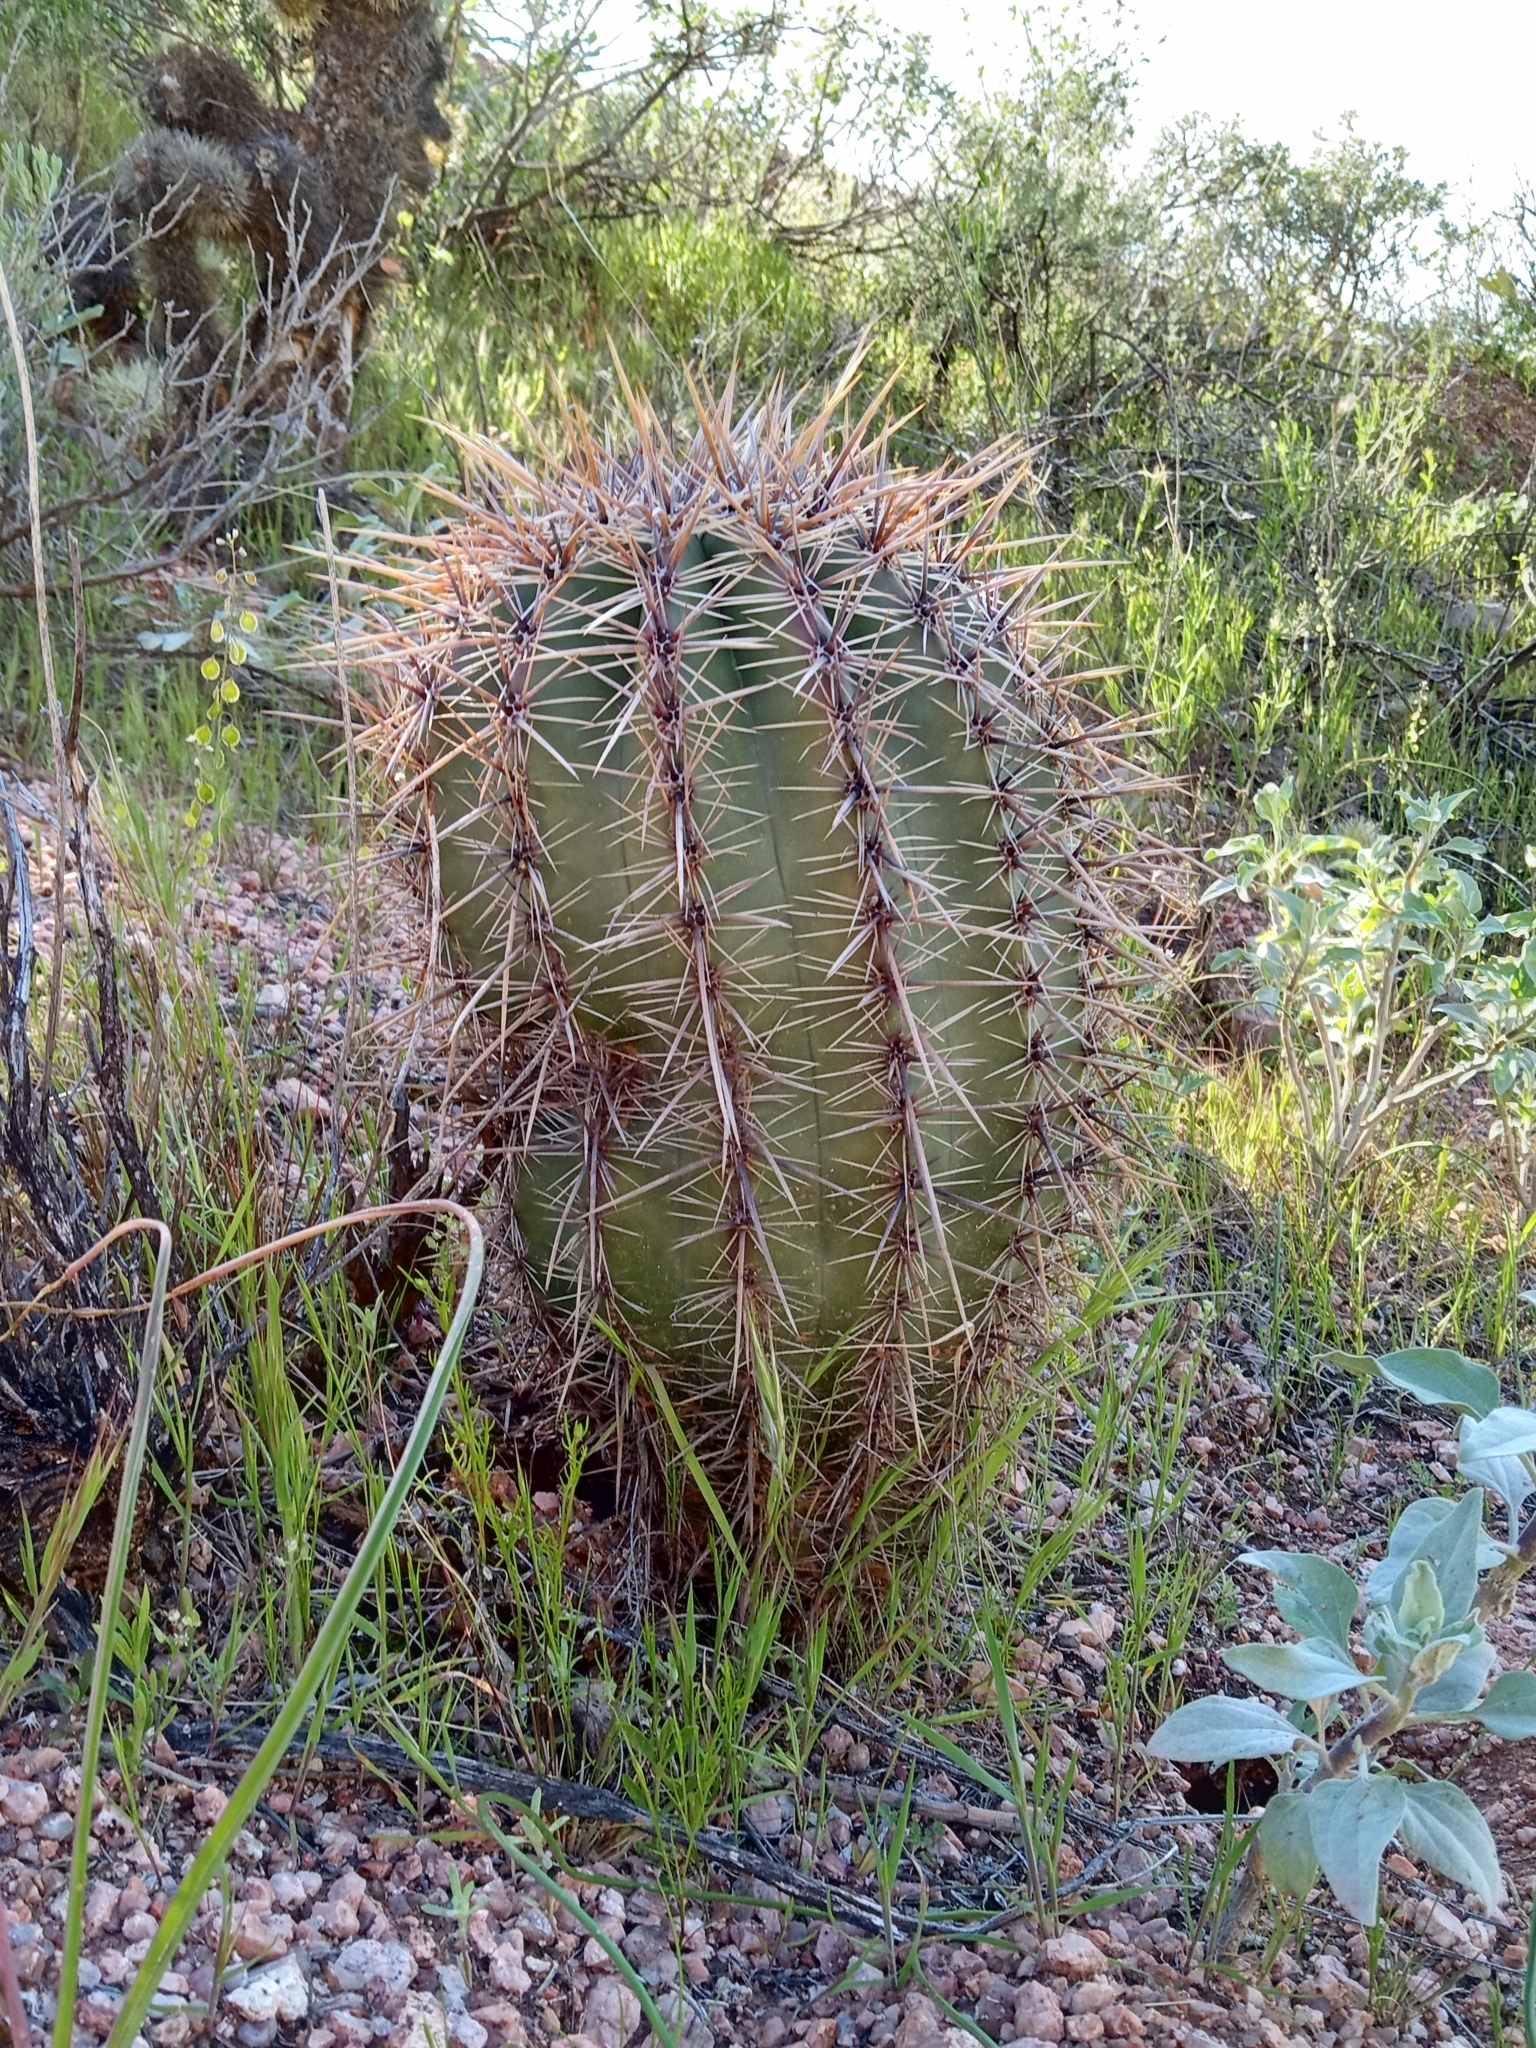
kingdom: Plantae
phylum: Tracheophyta
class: Magnoliopsida
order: Caryophyllales
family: Cactaceae
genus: Carnegiea
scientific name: Carnegiea gigantea
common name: Saguaro
